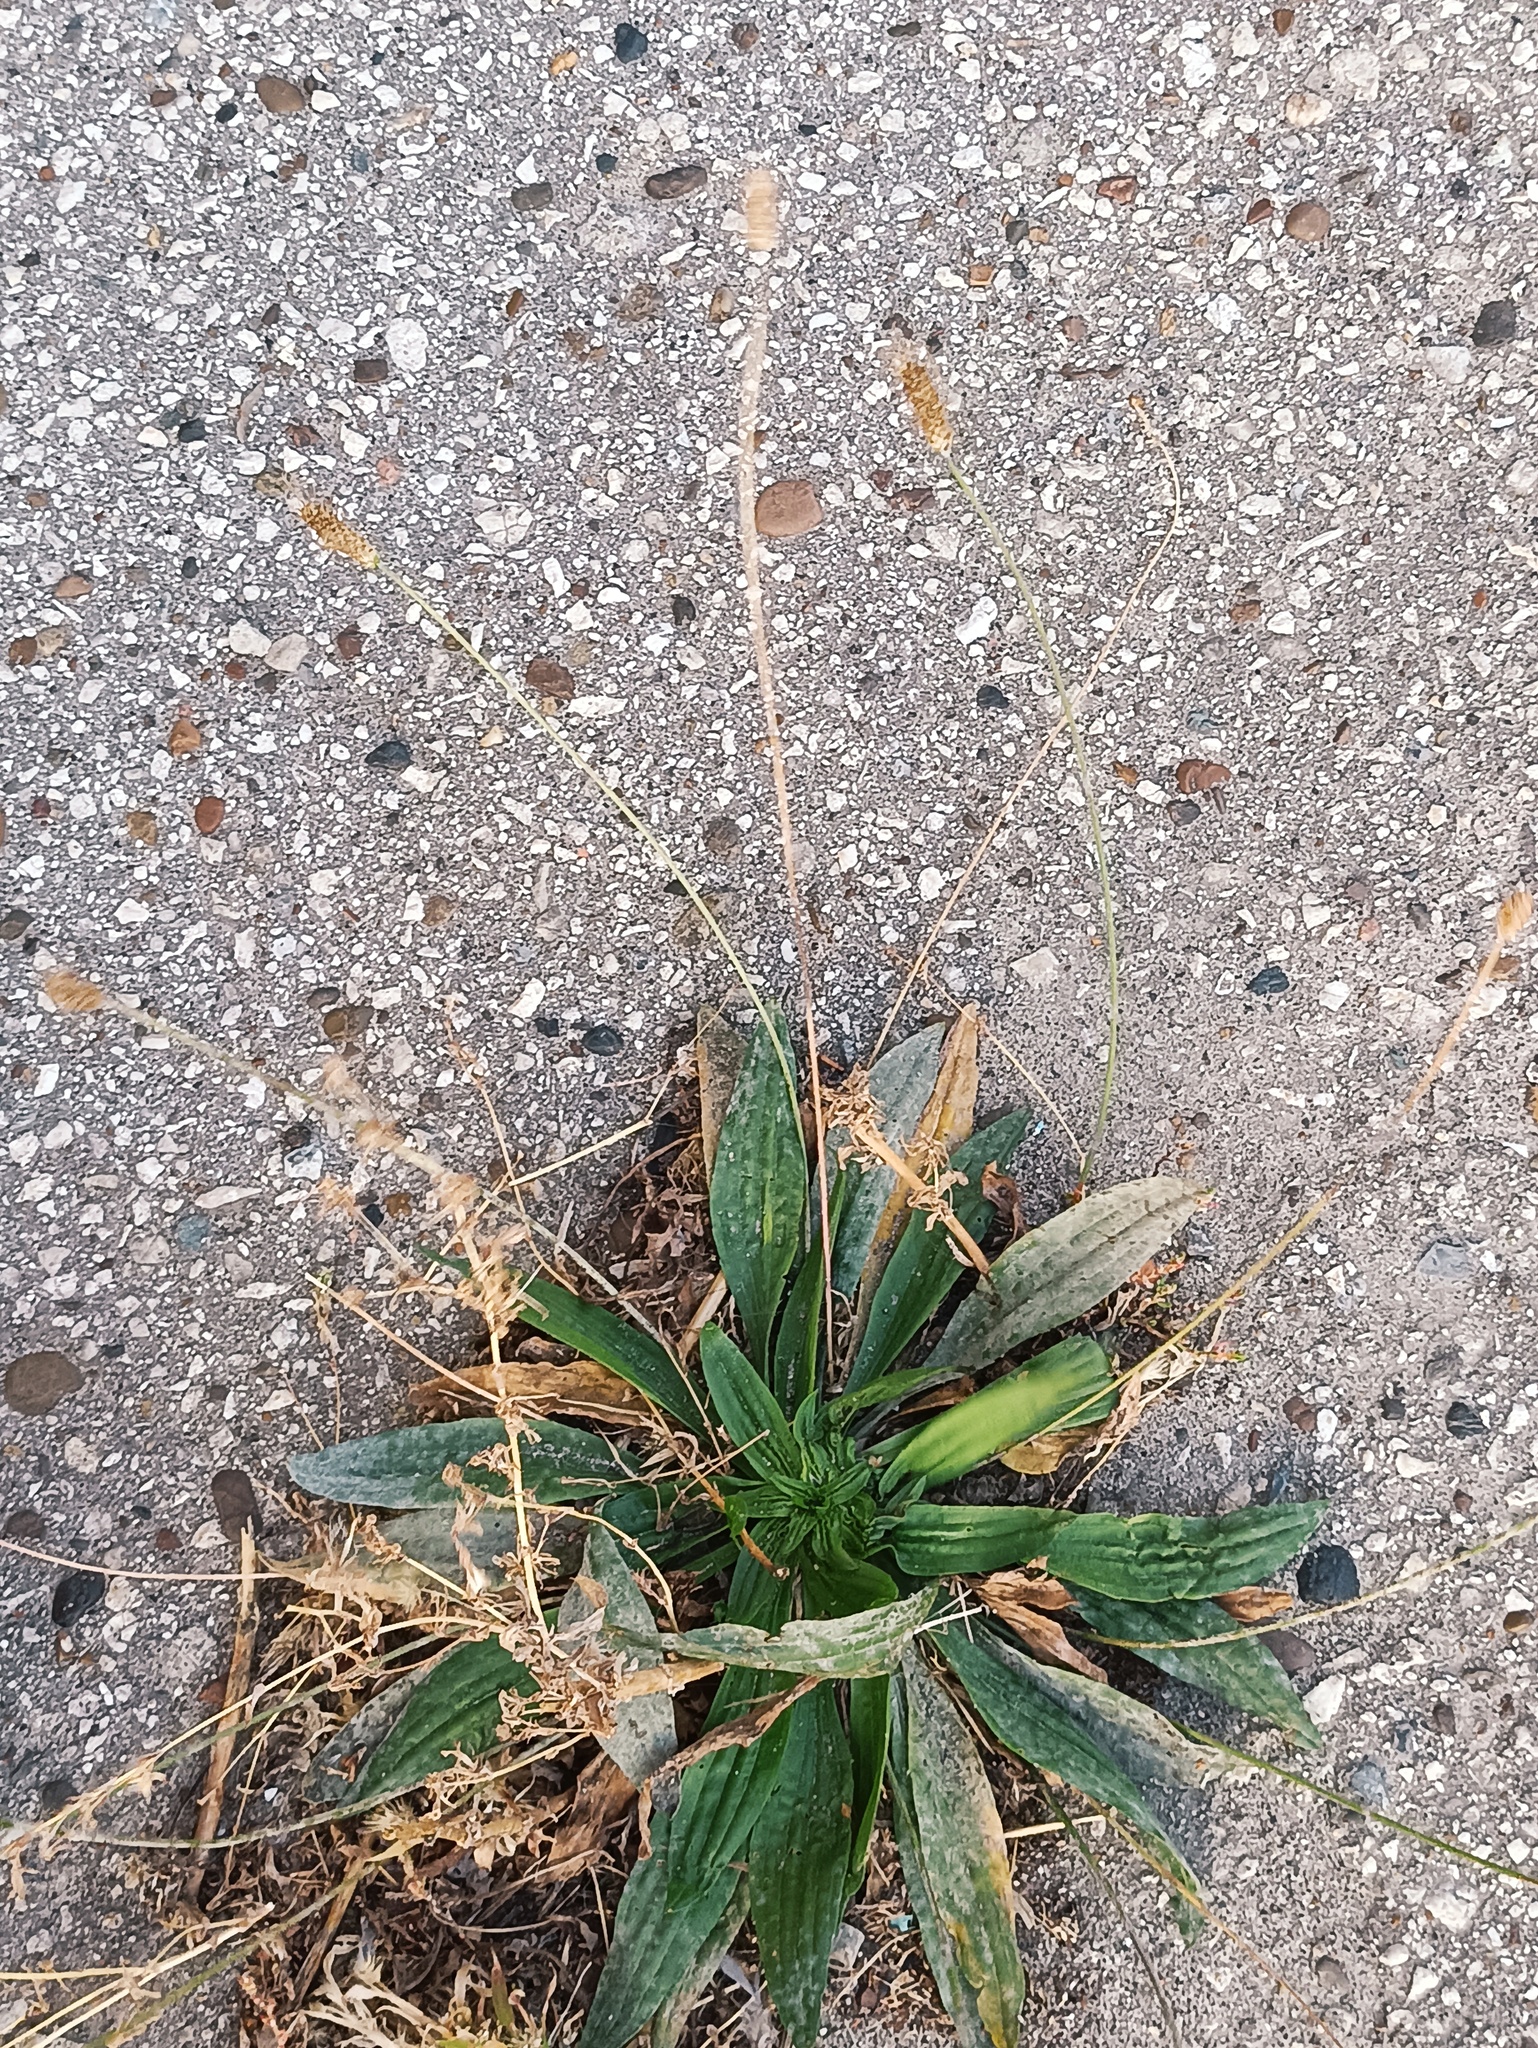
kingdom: Plantae
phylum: Tracheophyta
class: Magnoliopsida
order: Lamiales
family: Plantaginaceae
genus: Plantago
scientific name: Plantago lanceolata
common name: Ribwort plantain
